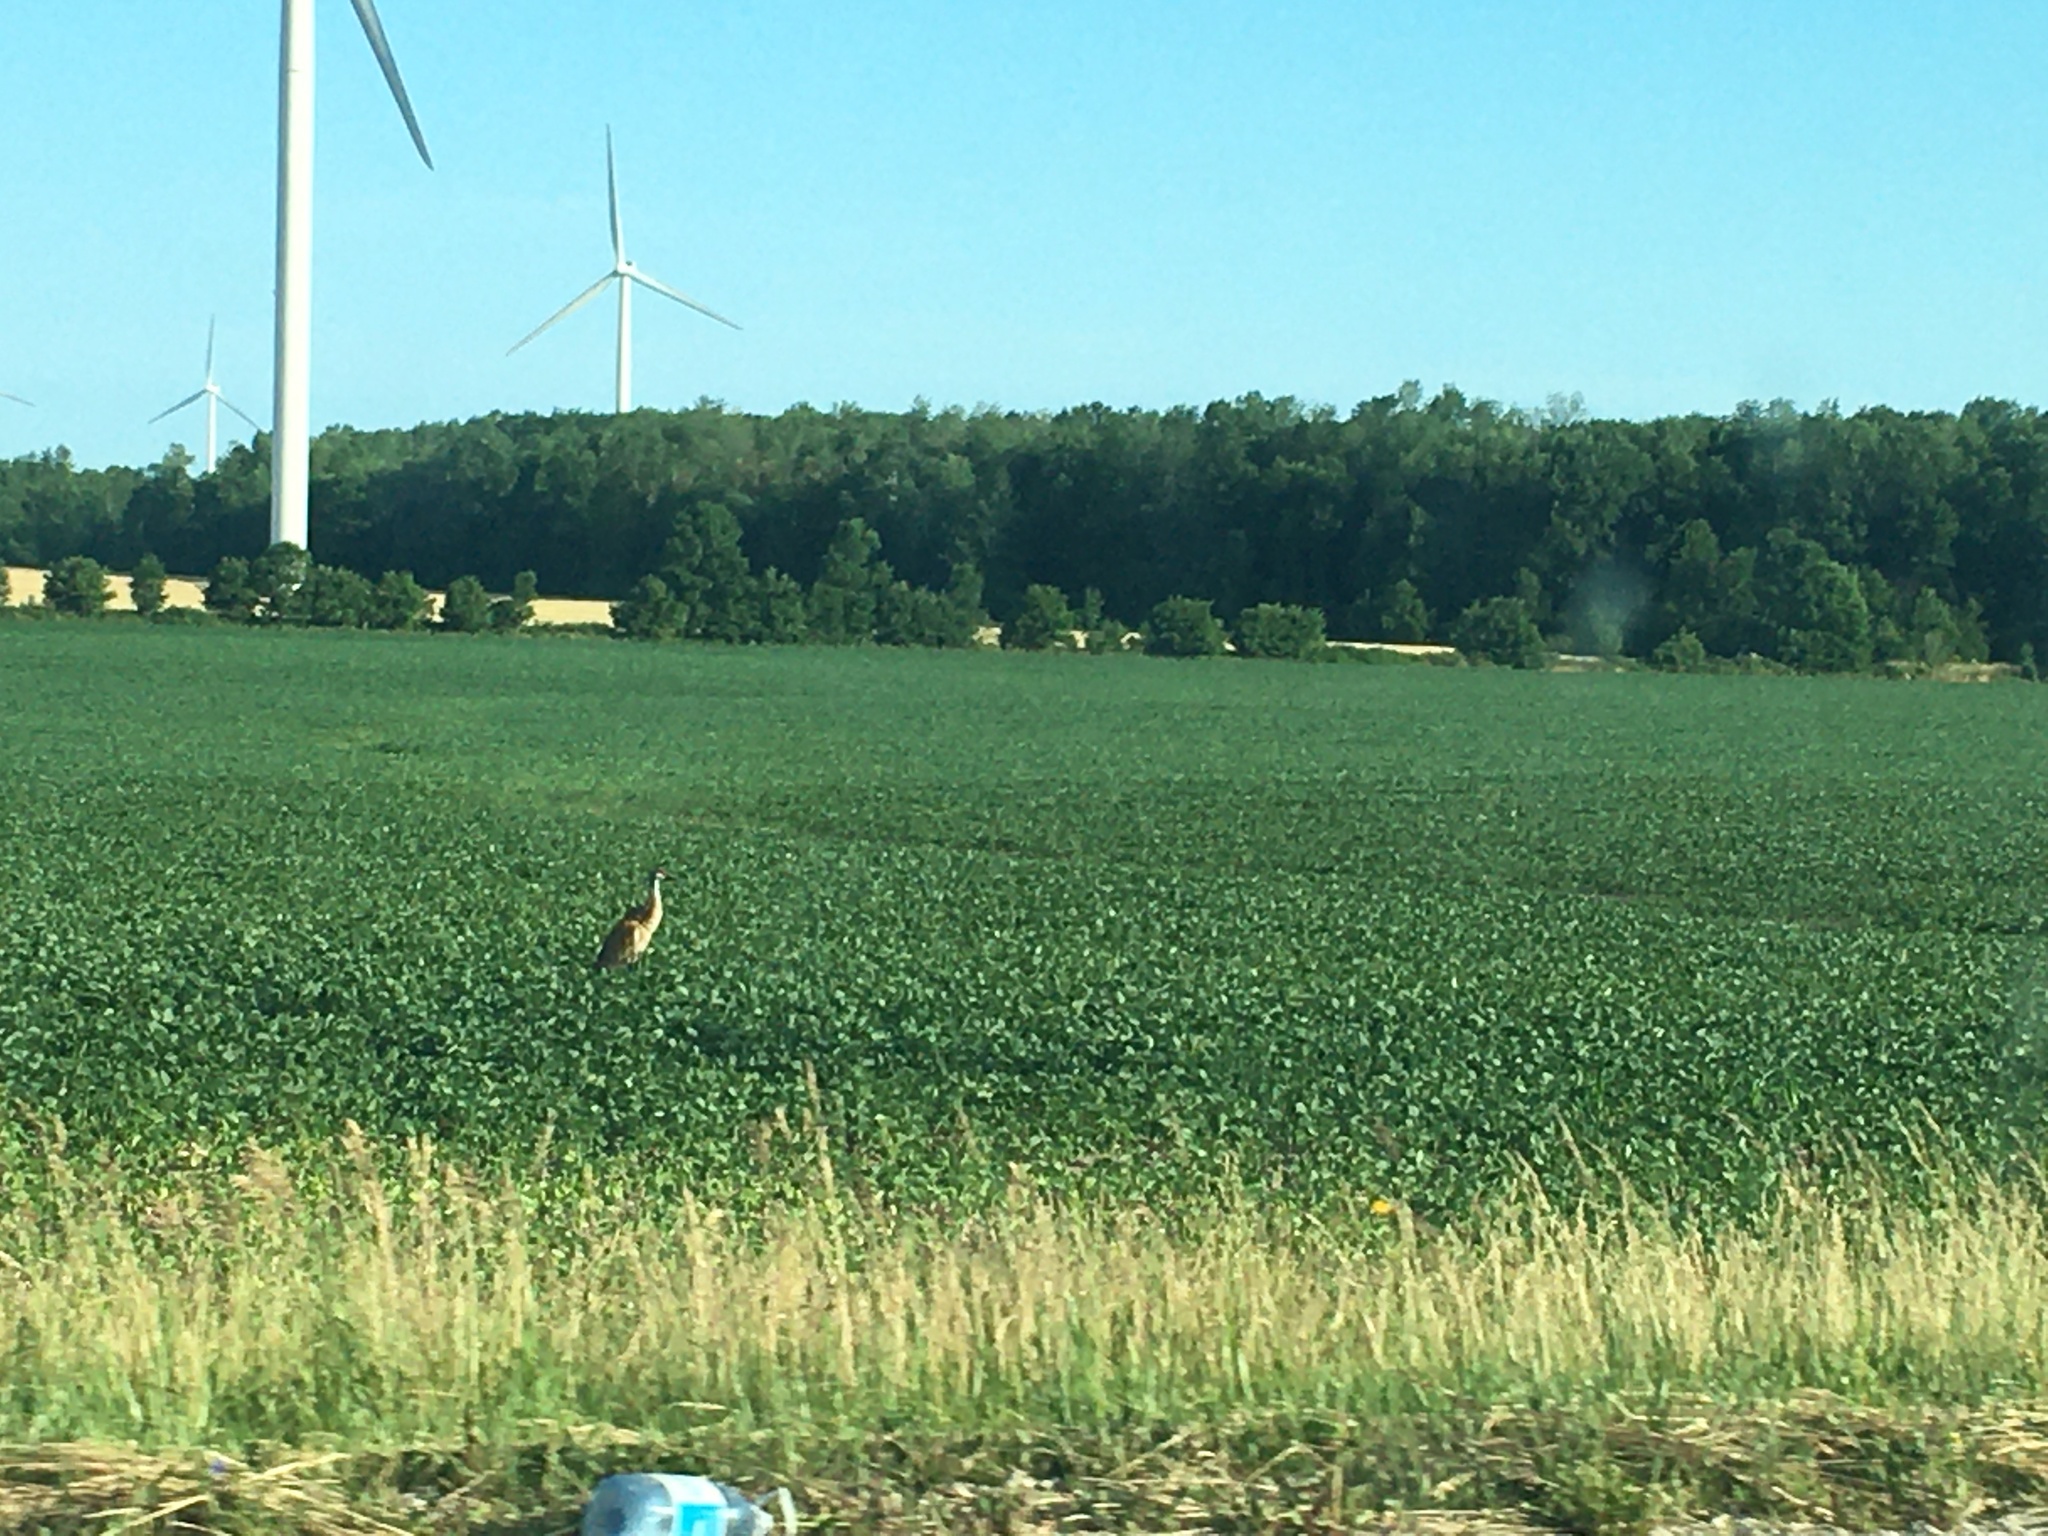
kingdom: Animalia
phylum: Chordata
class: Aves
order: Gruiformes
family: Gruidae
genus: Grus
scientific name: Grus canadensis
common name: Sandhill crane
